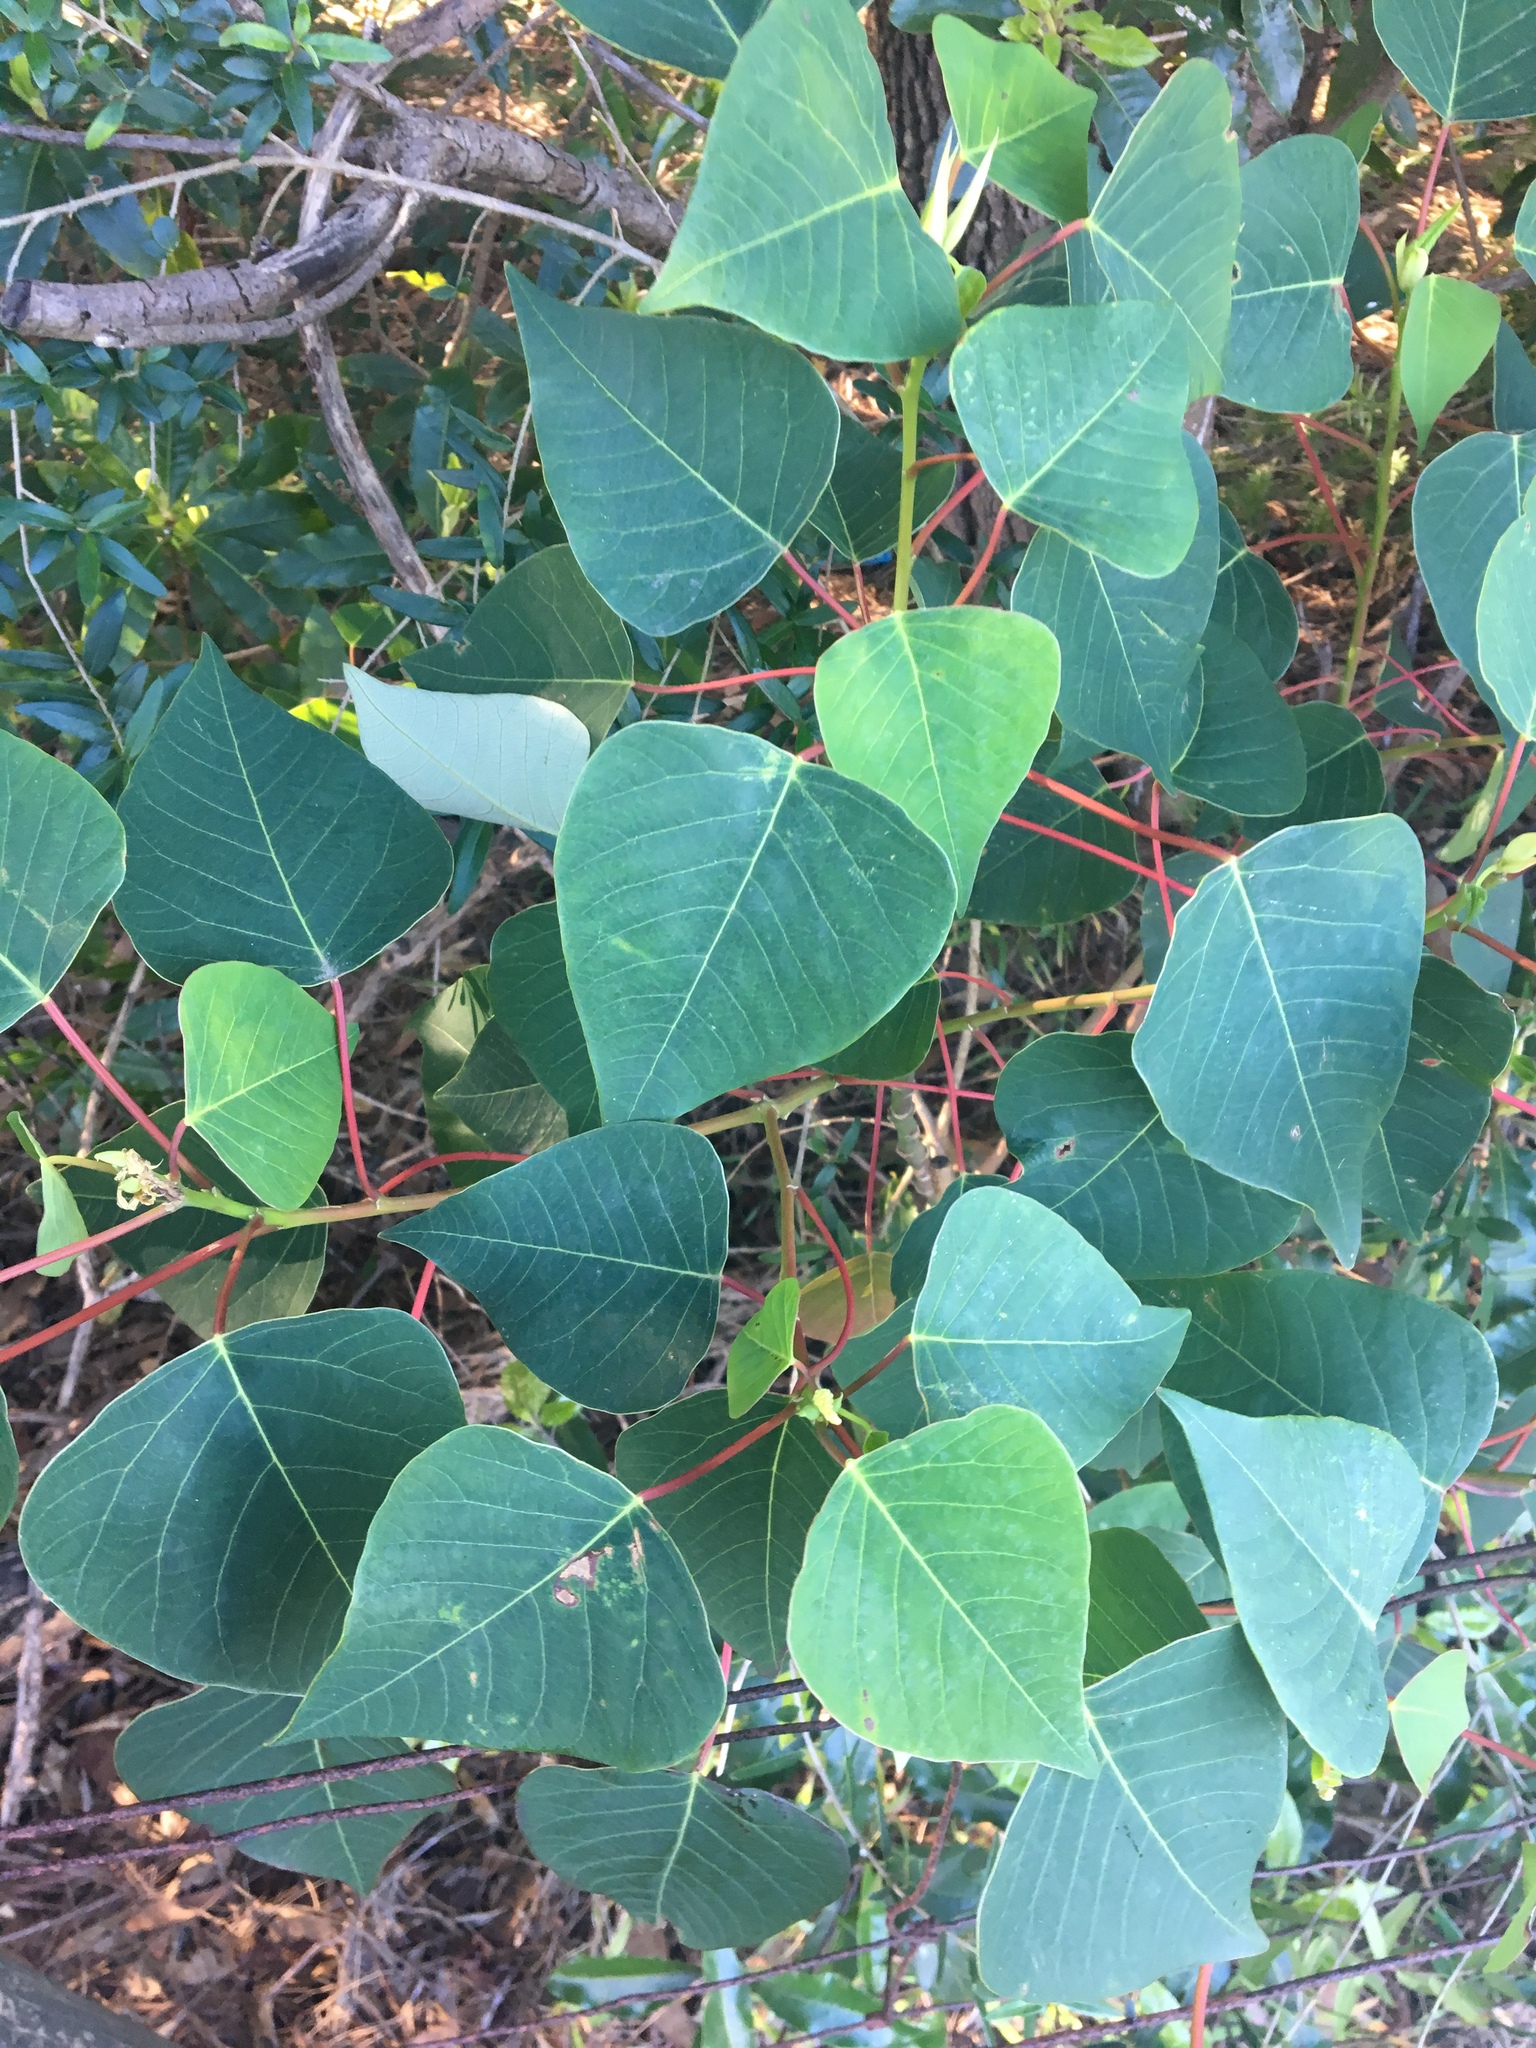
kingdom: Plantae
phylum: Tracheophyta
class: Magnoliopsida
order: Malpighiales
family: Euphorbiaceae
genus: Homalanthus
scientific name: Homalanthus populifolius
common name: Queensland poplar
